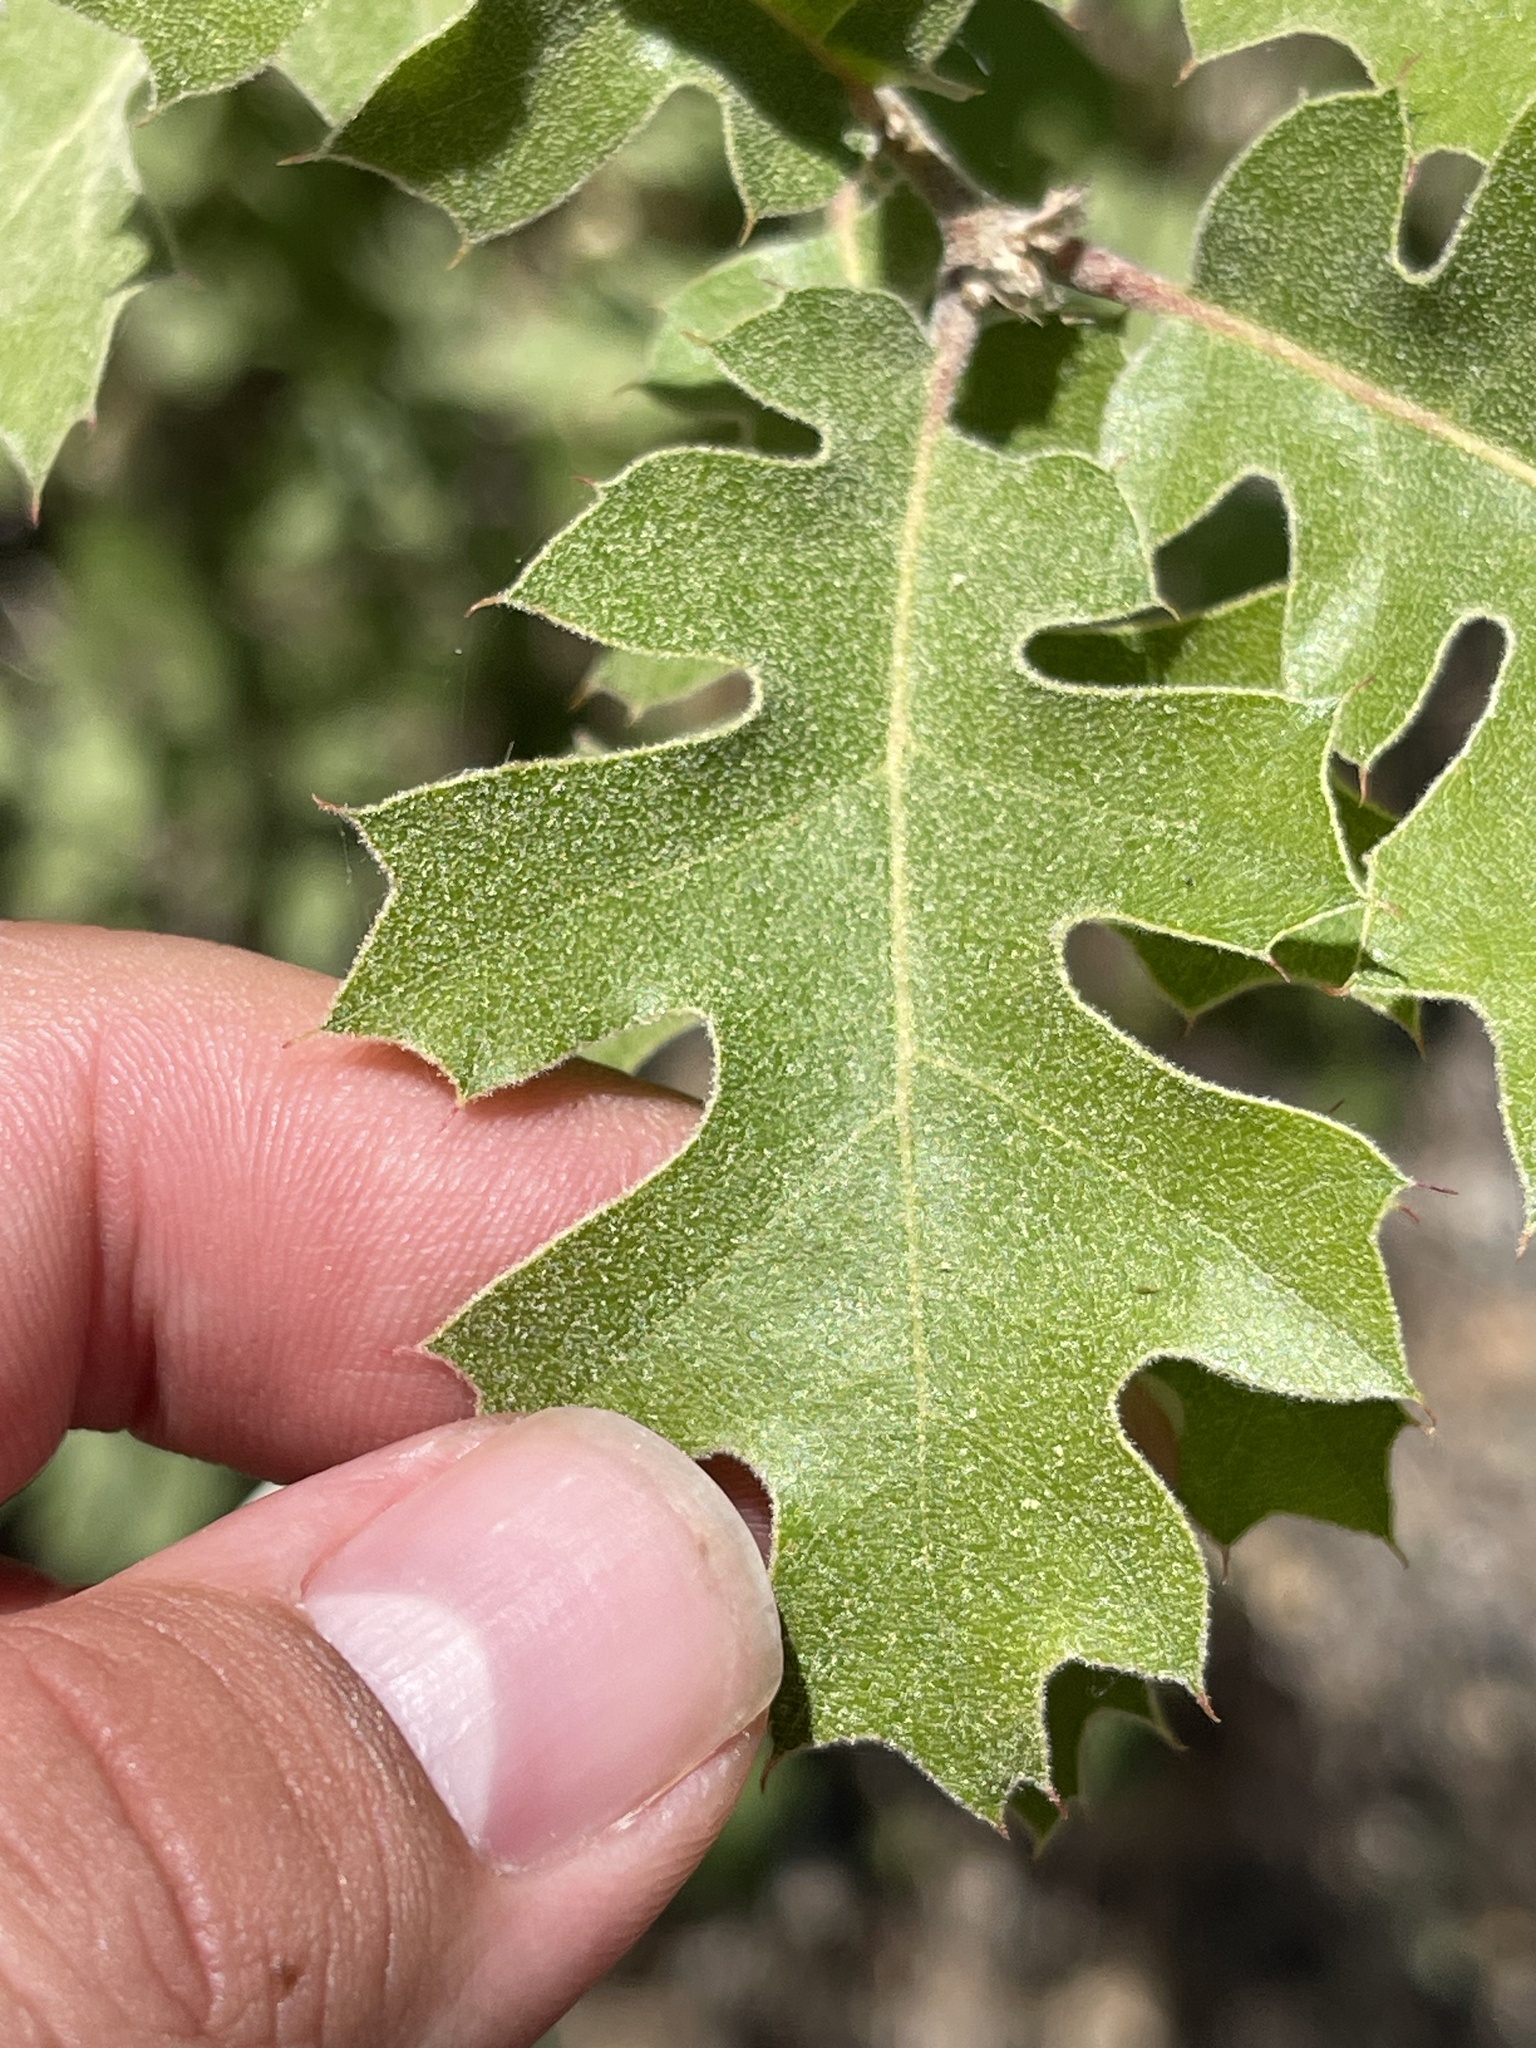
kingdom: Plantae
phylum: Tracheophyta
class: Magnoliopsida
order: Fagales
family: Fagaceae
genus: Quercus
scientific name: Quercus kelloggii
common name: California black oak
